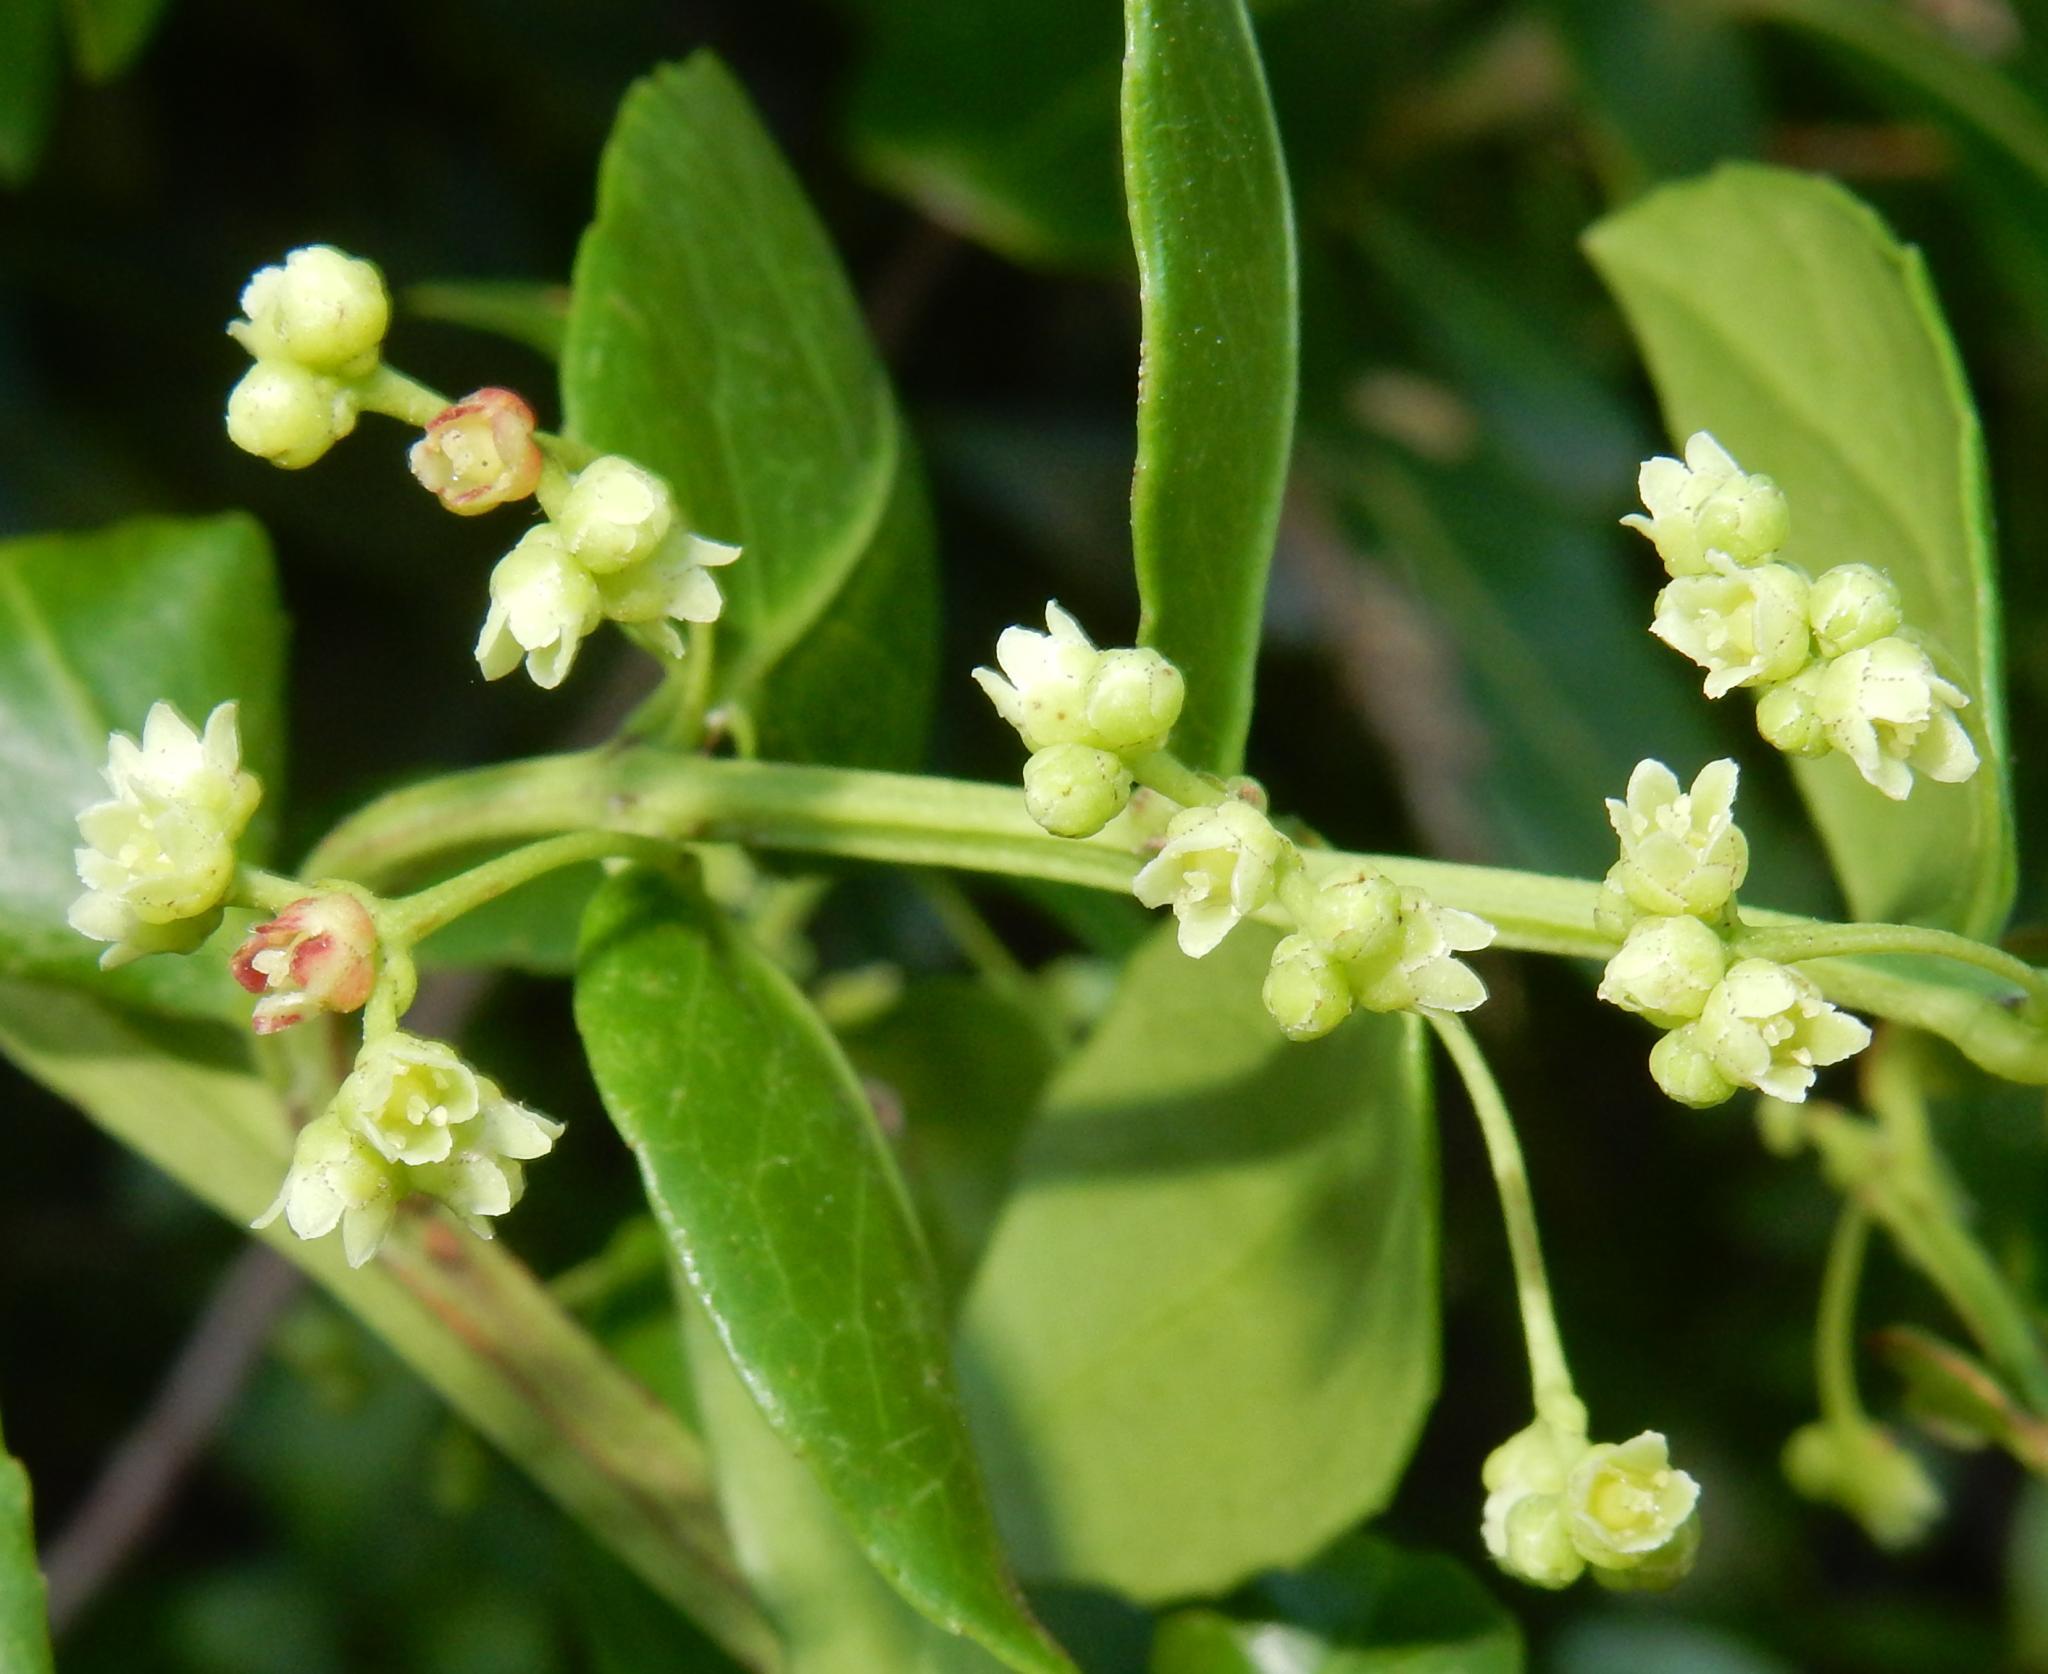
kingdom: Plantae
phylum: Tracheophyta
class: Magnoliopsida
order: Celastrales
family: Celastraceae
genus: Lauridia
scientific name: Lauridia tetragona
